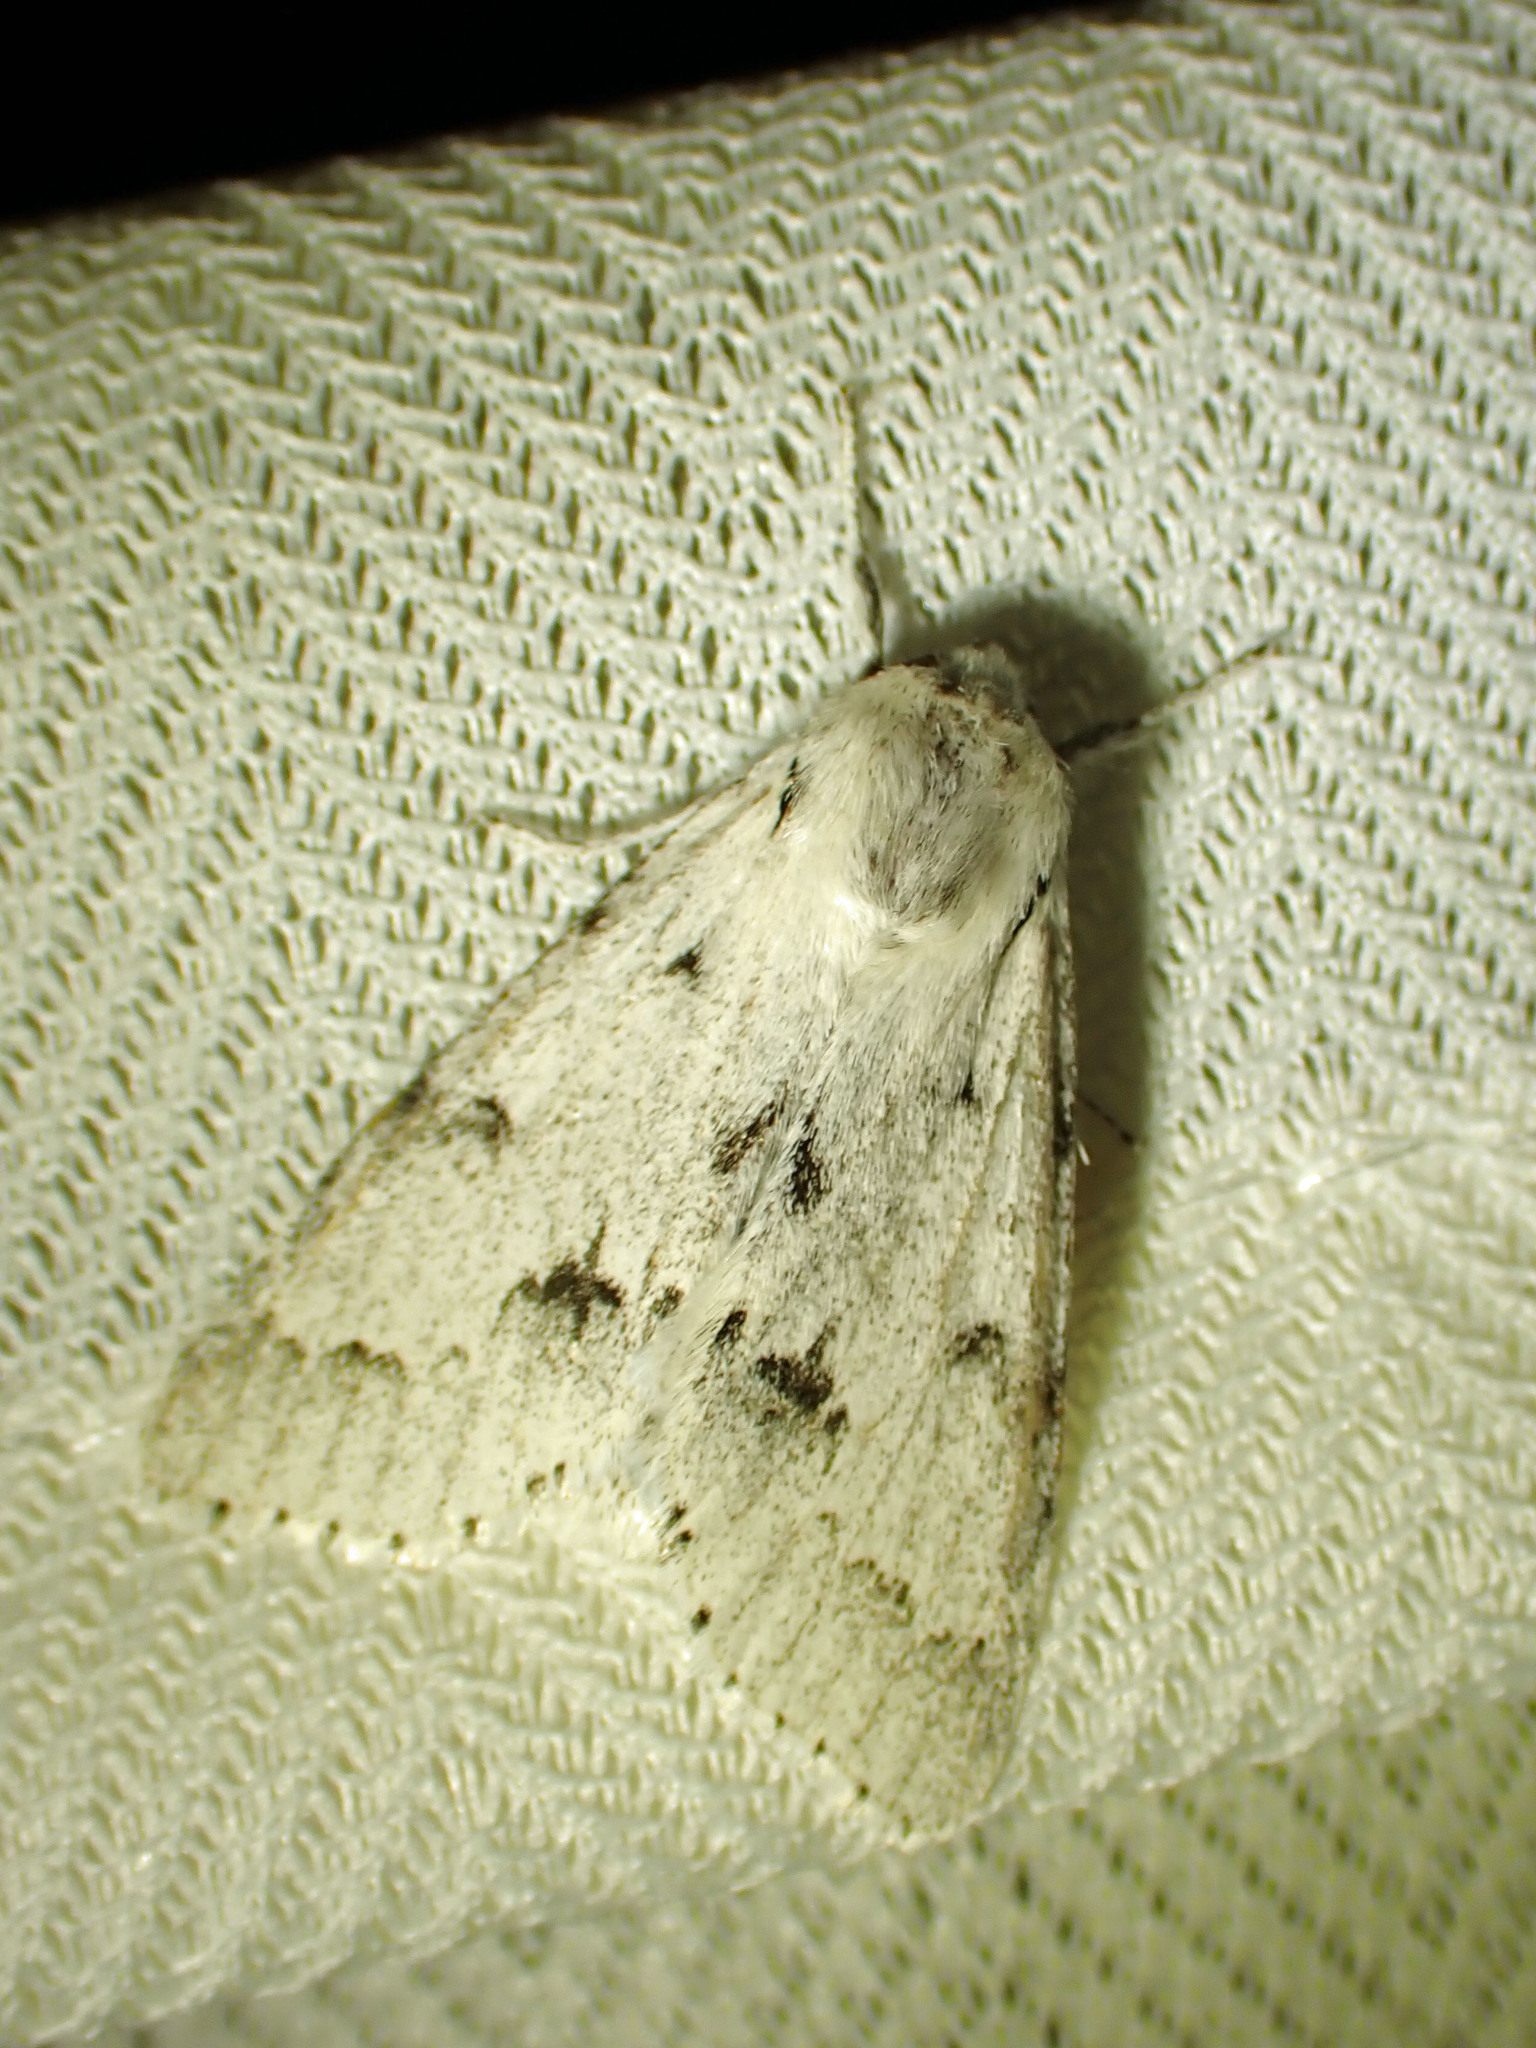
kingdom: Animalia
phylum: Arthropoda
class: Insecta
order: Lepidoptera
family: Noctuidae
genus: Acronicta
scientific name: Acronicta vulpina
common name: Miller dagger
